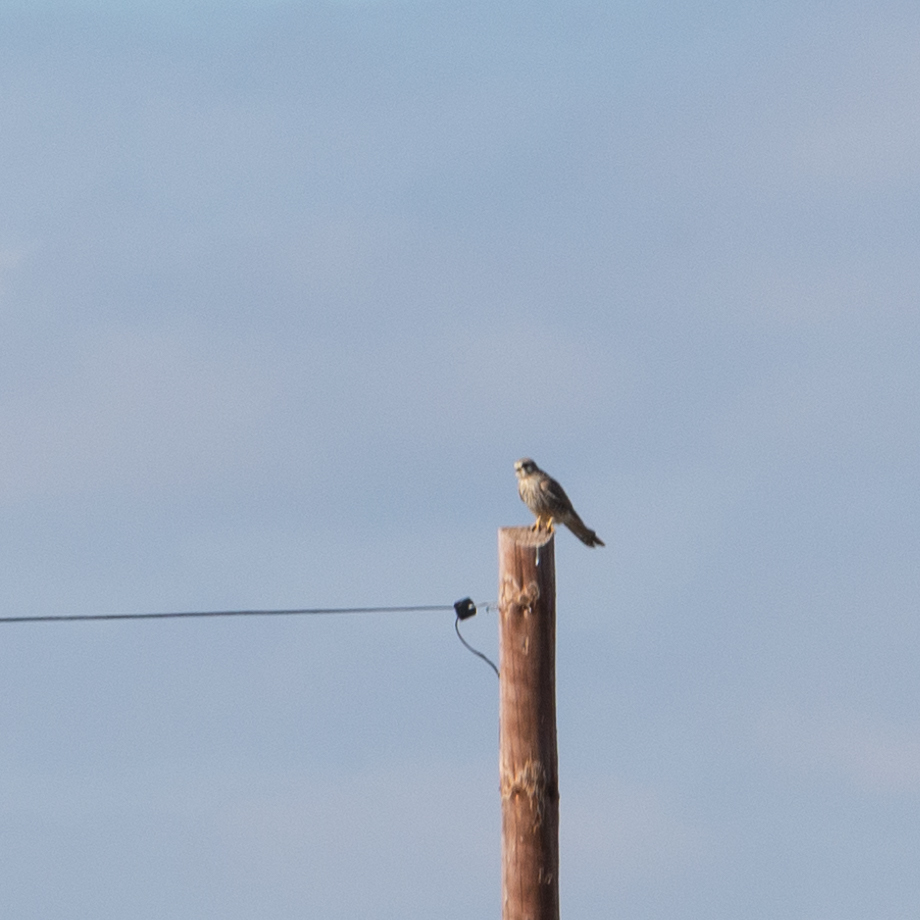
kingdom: Animalia
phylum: Chordata
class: Aves
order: Falconiformes
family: Falconidae
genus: Falco
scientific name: Falco tinnunculus
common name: Common kestrel
